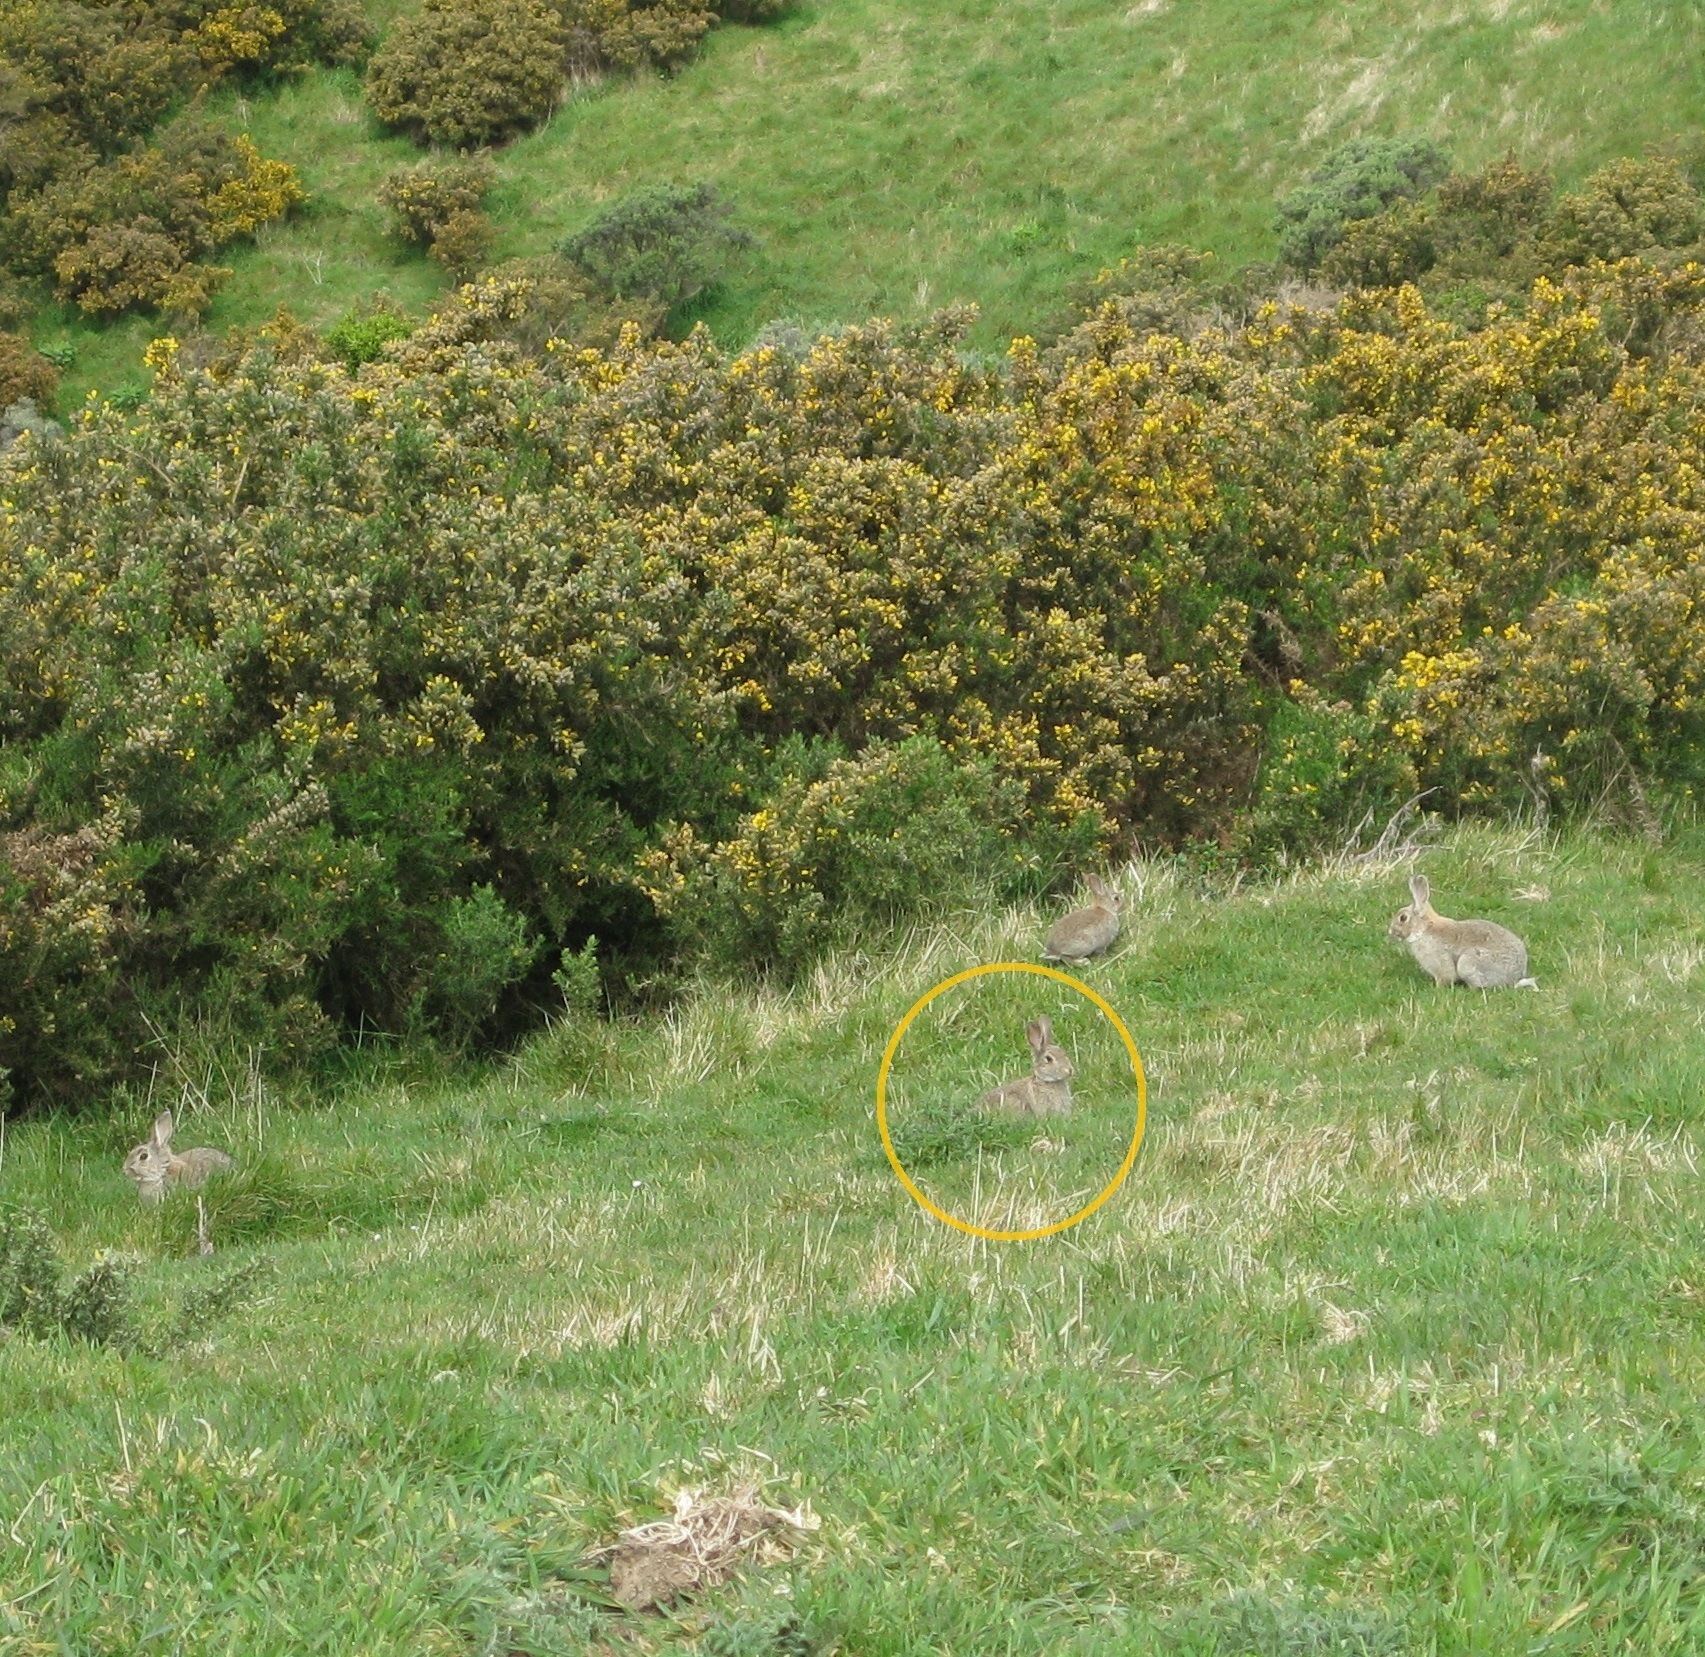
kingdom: Animalia
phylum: Chordata
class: Mammalia
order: Lagomorpha
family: Leporidae
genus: Oryctolagus
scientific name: Oryctolagus cuniculus
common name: European rabbit
